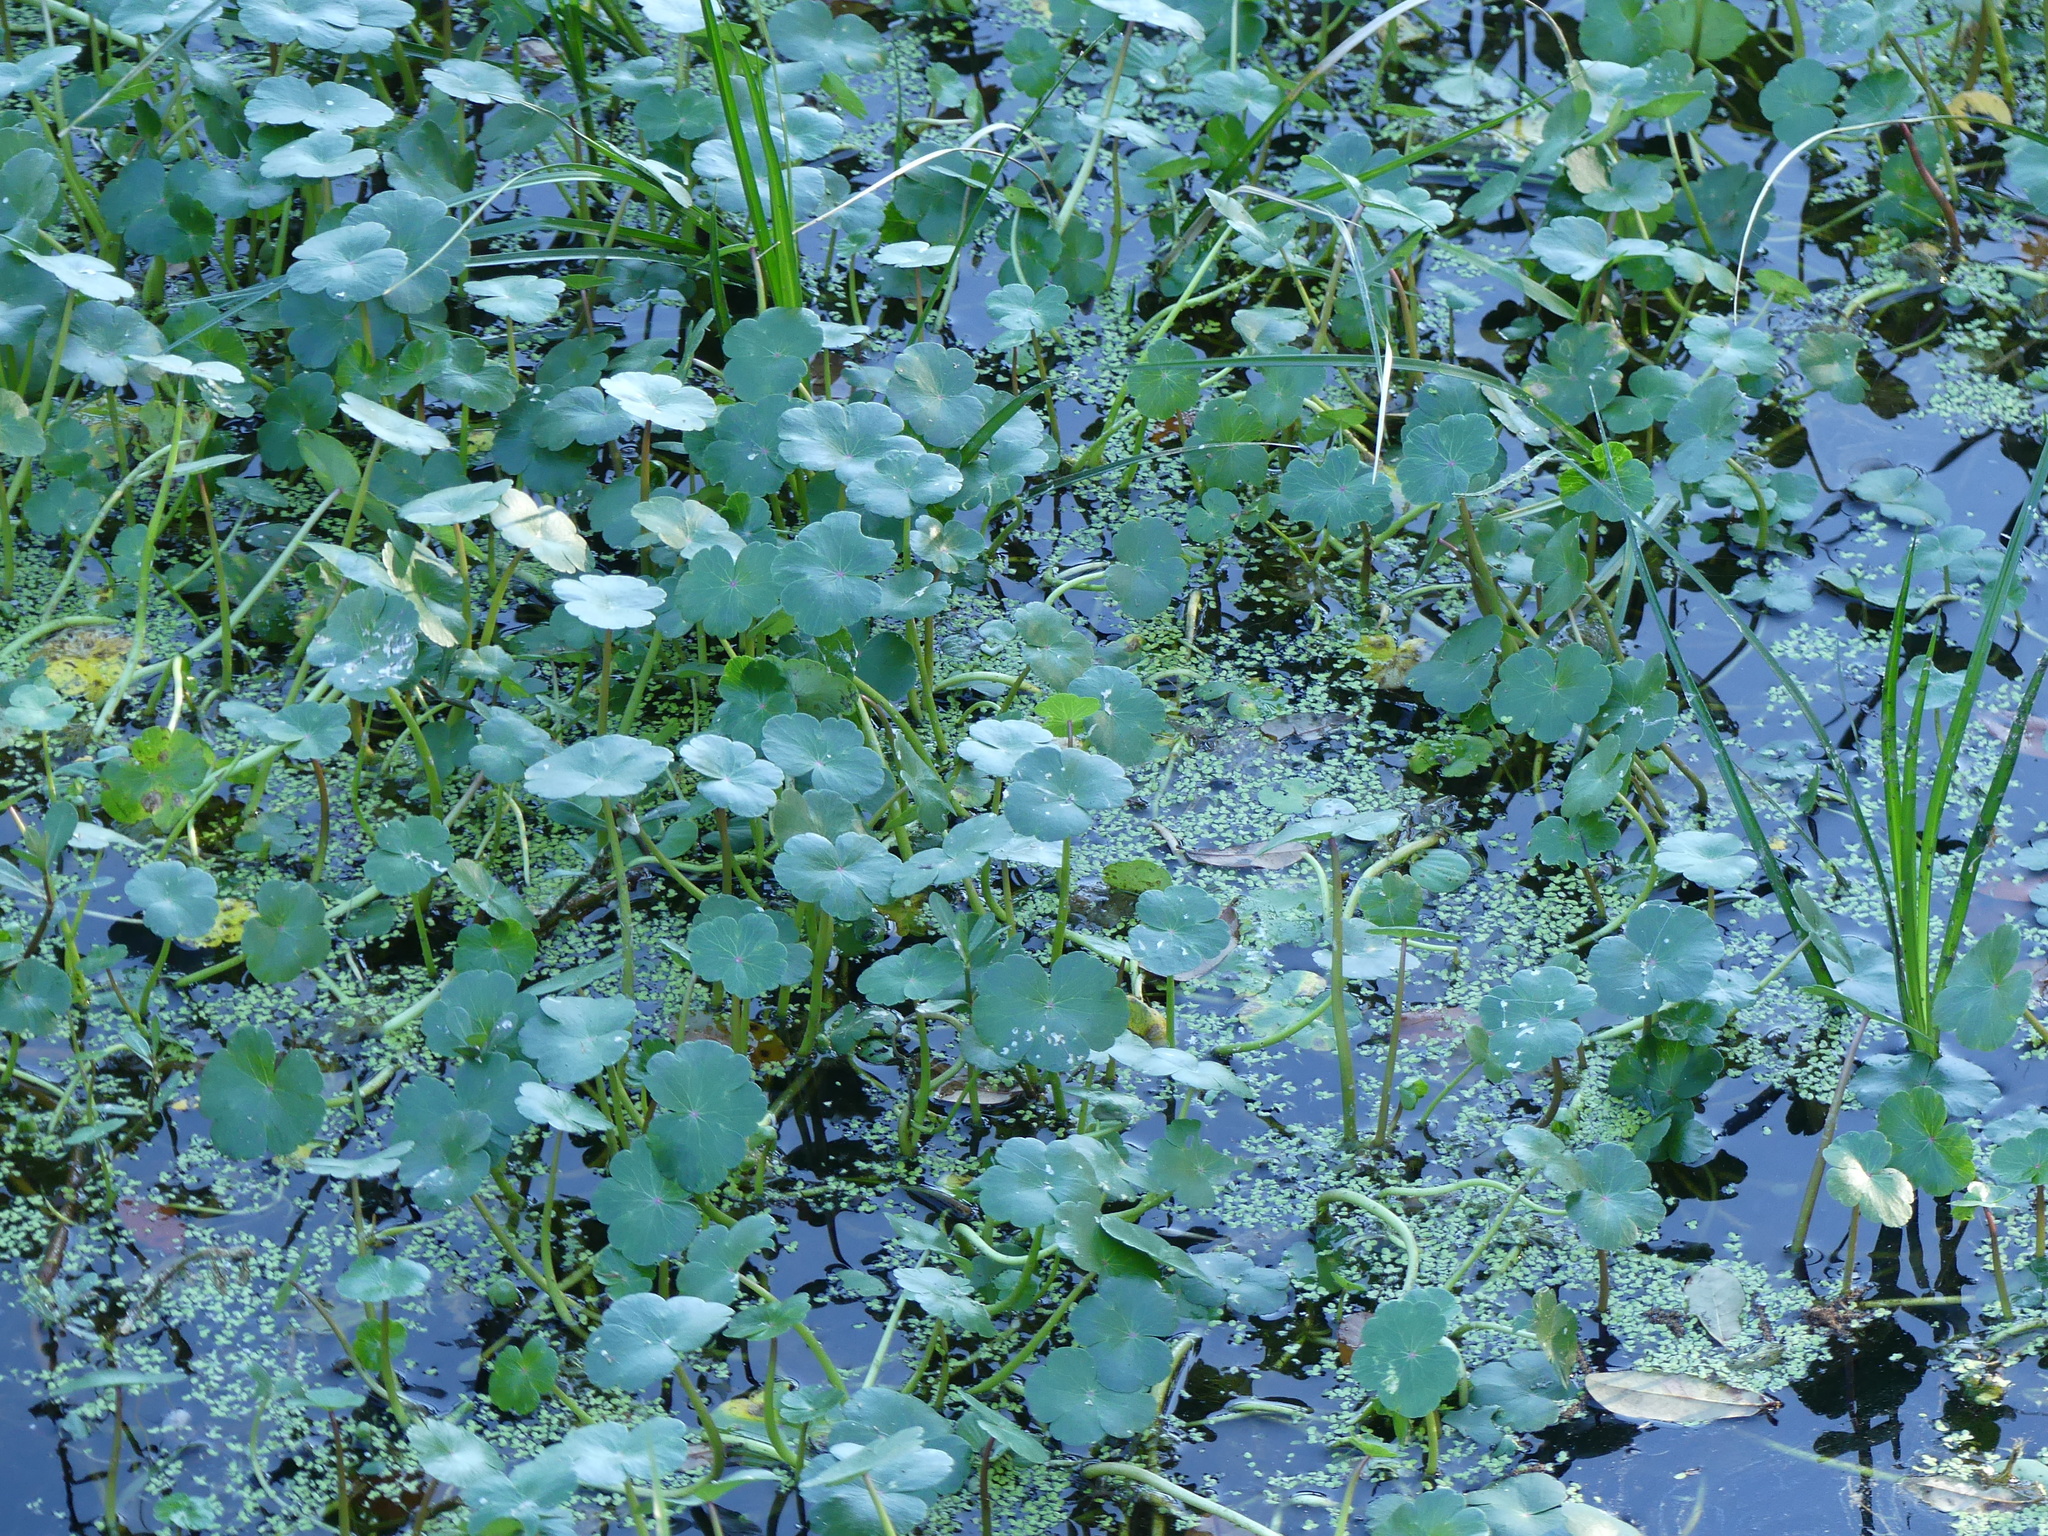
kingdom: Plantae
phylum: Tracheophyta
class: Magnoliopsida
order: Apiales
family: Araliaceae
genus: Hydrocotyle
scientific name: Hydrocotyle ranunculoides
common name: Floating pennywort
